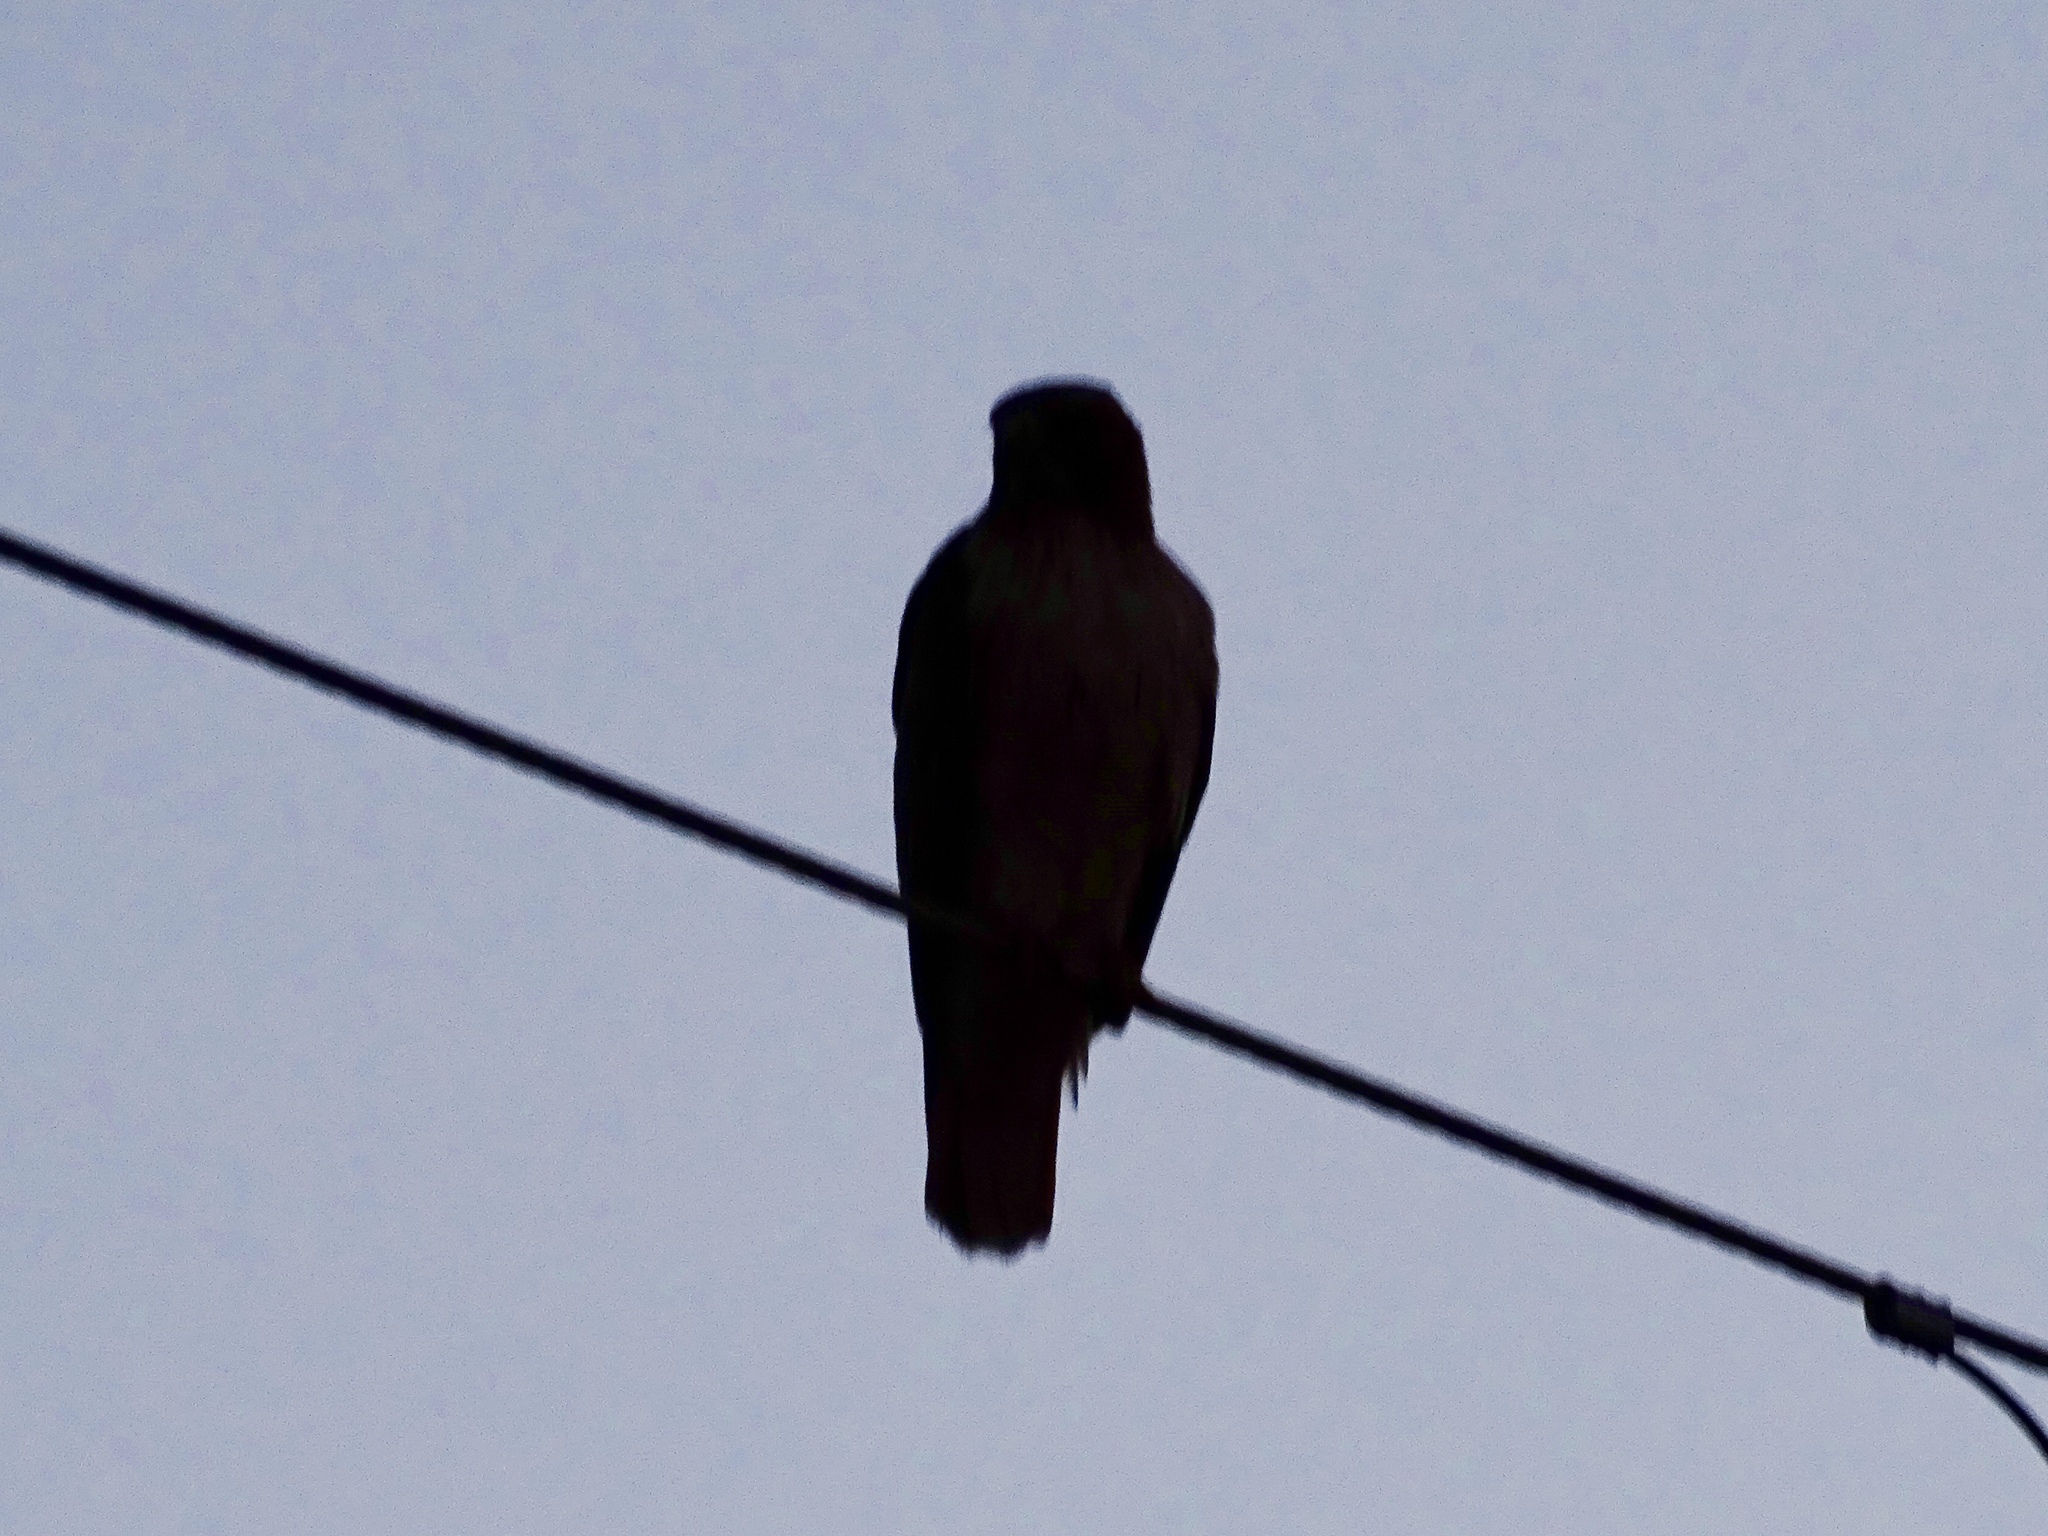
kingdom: Animalia
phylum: Chordata
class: Aves
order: Accipitriformes
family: Accipitridae
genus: Buteo
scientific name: Buteo jamaicensis
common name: Red-tailed hawk
